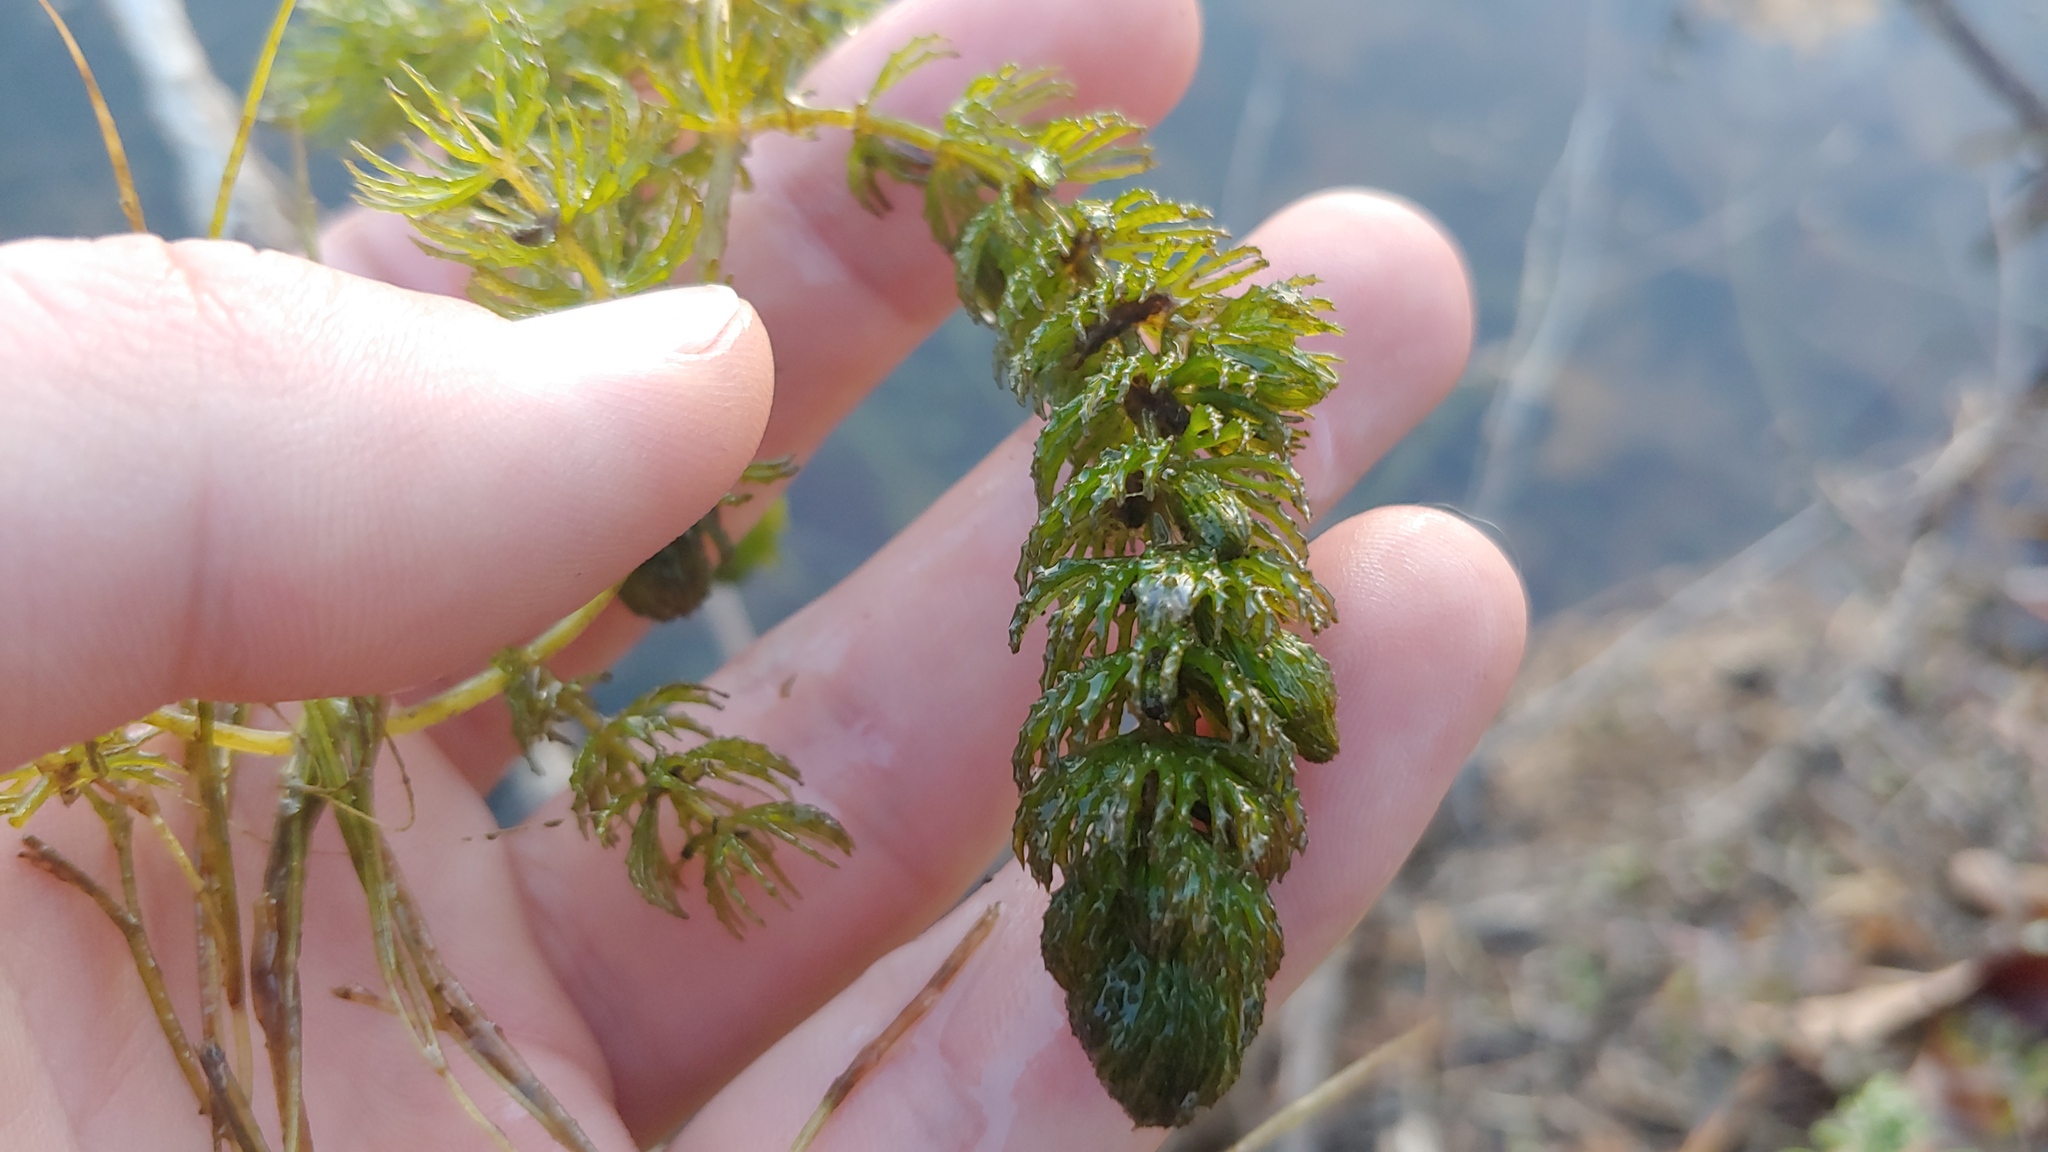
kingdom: Plantae
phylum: Tracheophyta
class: Magnoliopsida
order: Ceratophyllales
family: Ceratophyllaceae
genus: Ceratophyllum
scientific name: Ceratophyllum demersum
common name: Rigid hornwort
